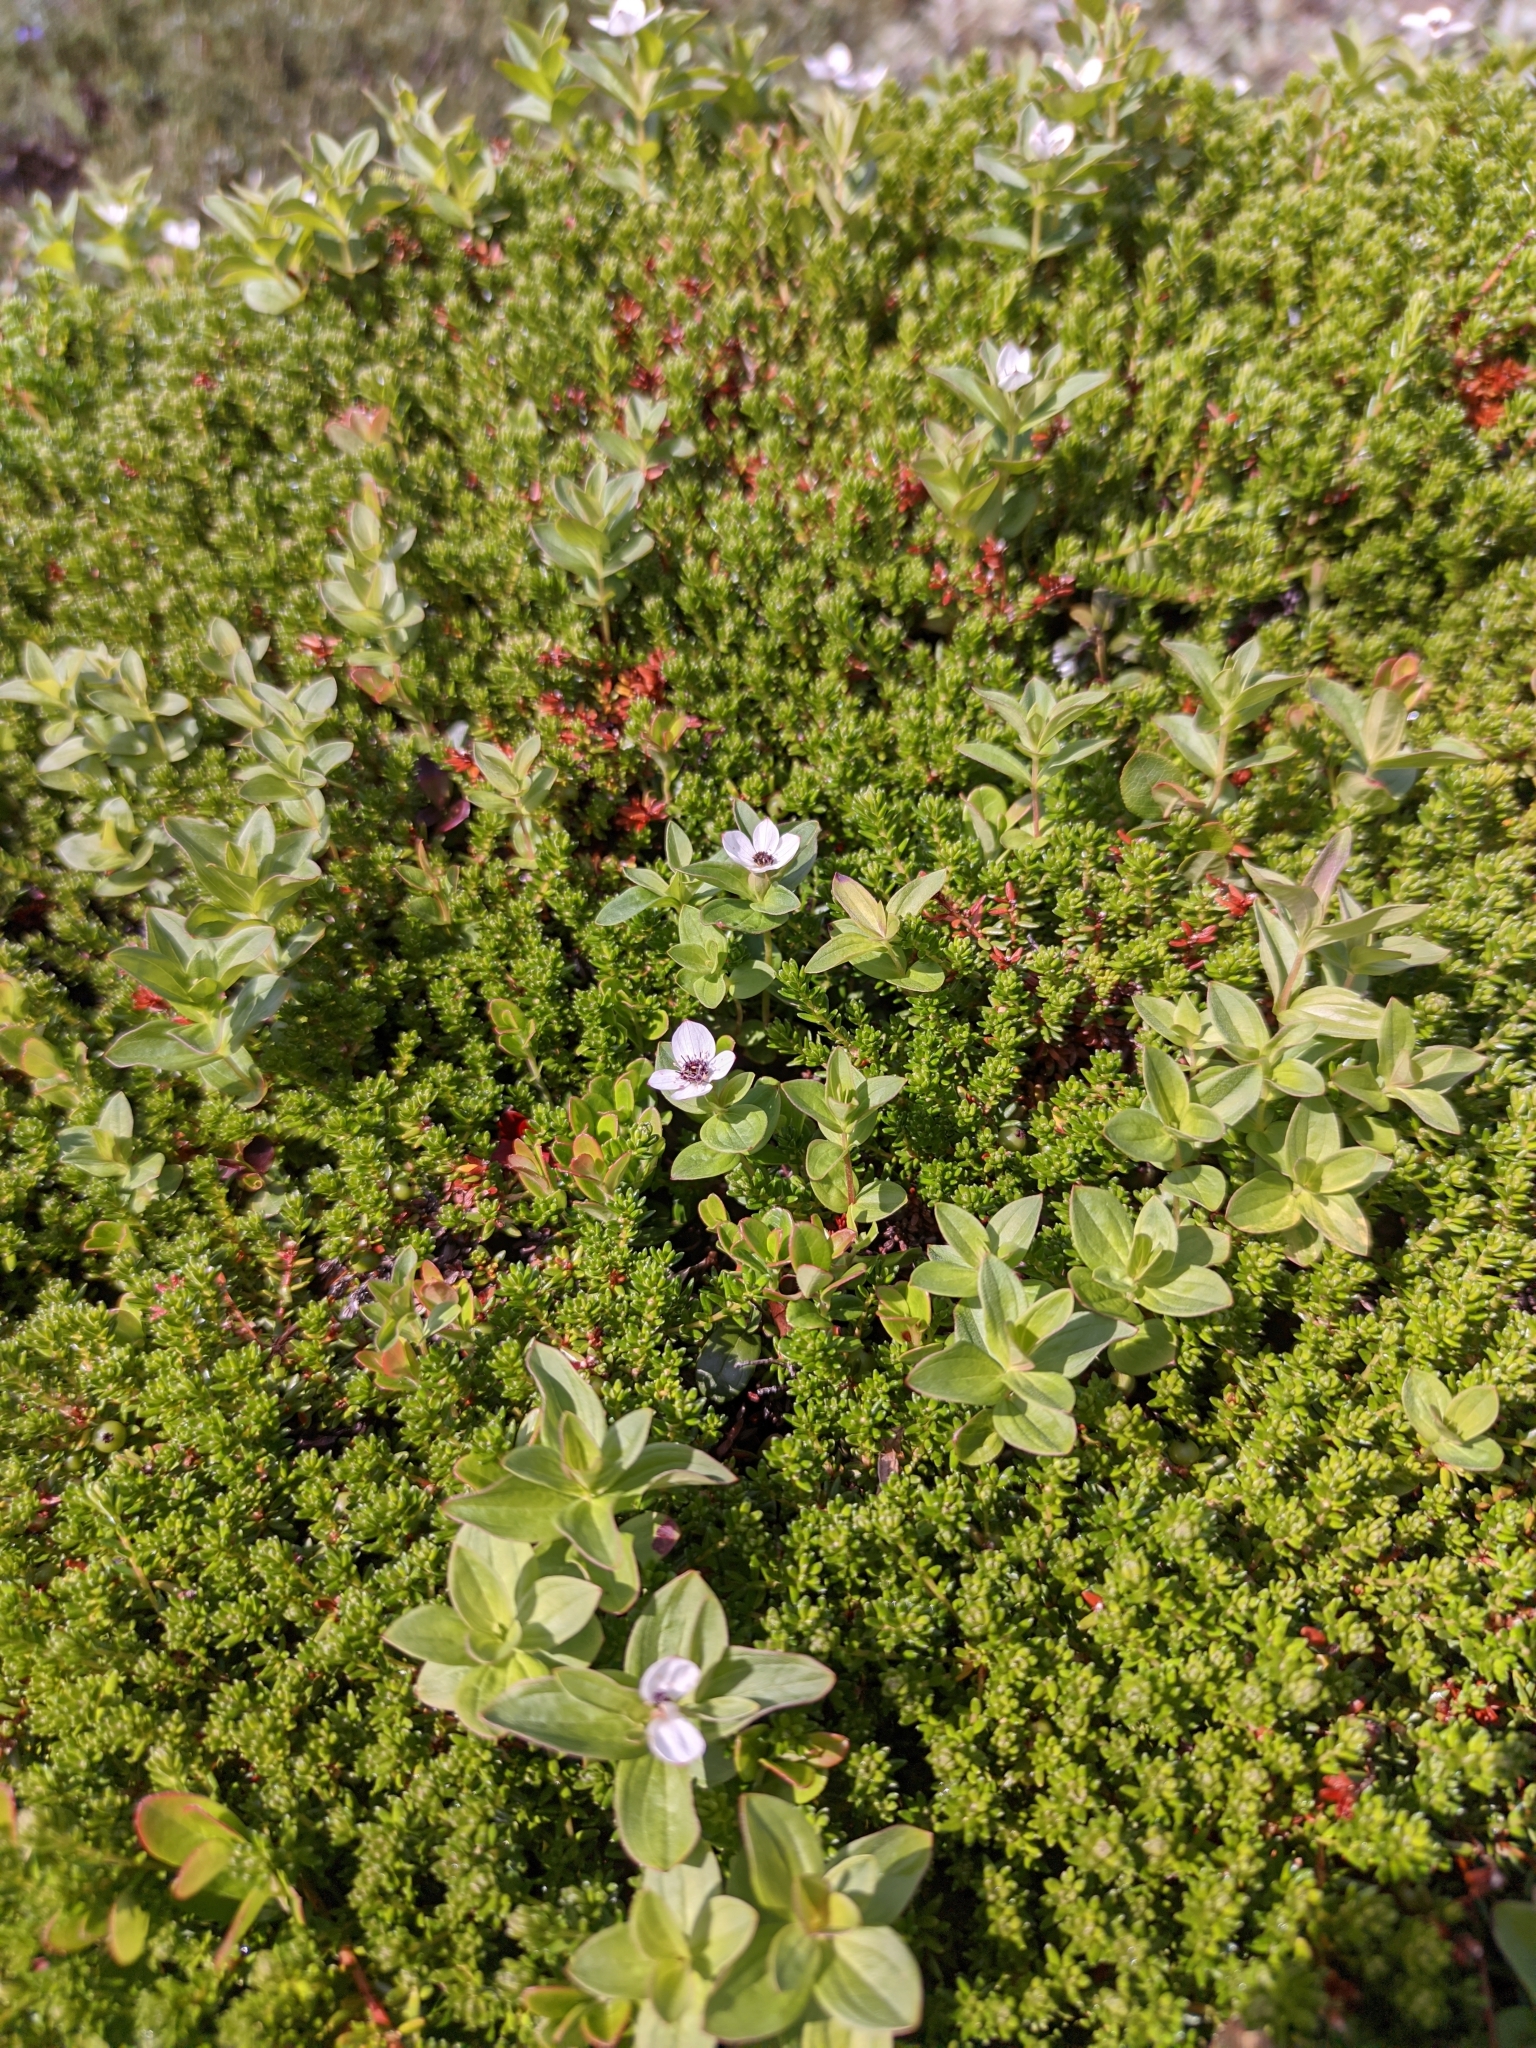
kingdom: Plantae
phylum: Tracheophyta
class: Magnoliopsida
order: Cornales
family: Cornaceae
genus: Cornus
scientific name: Cornus suecica
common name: Dwarf cornel
